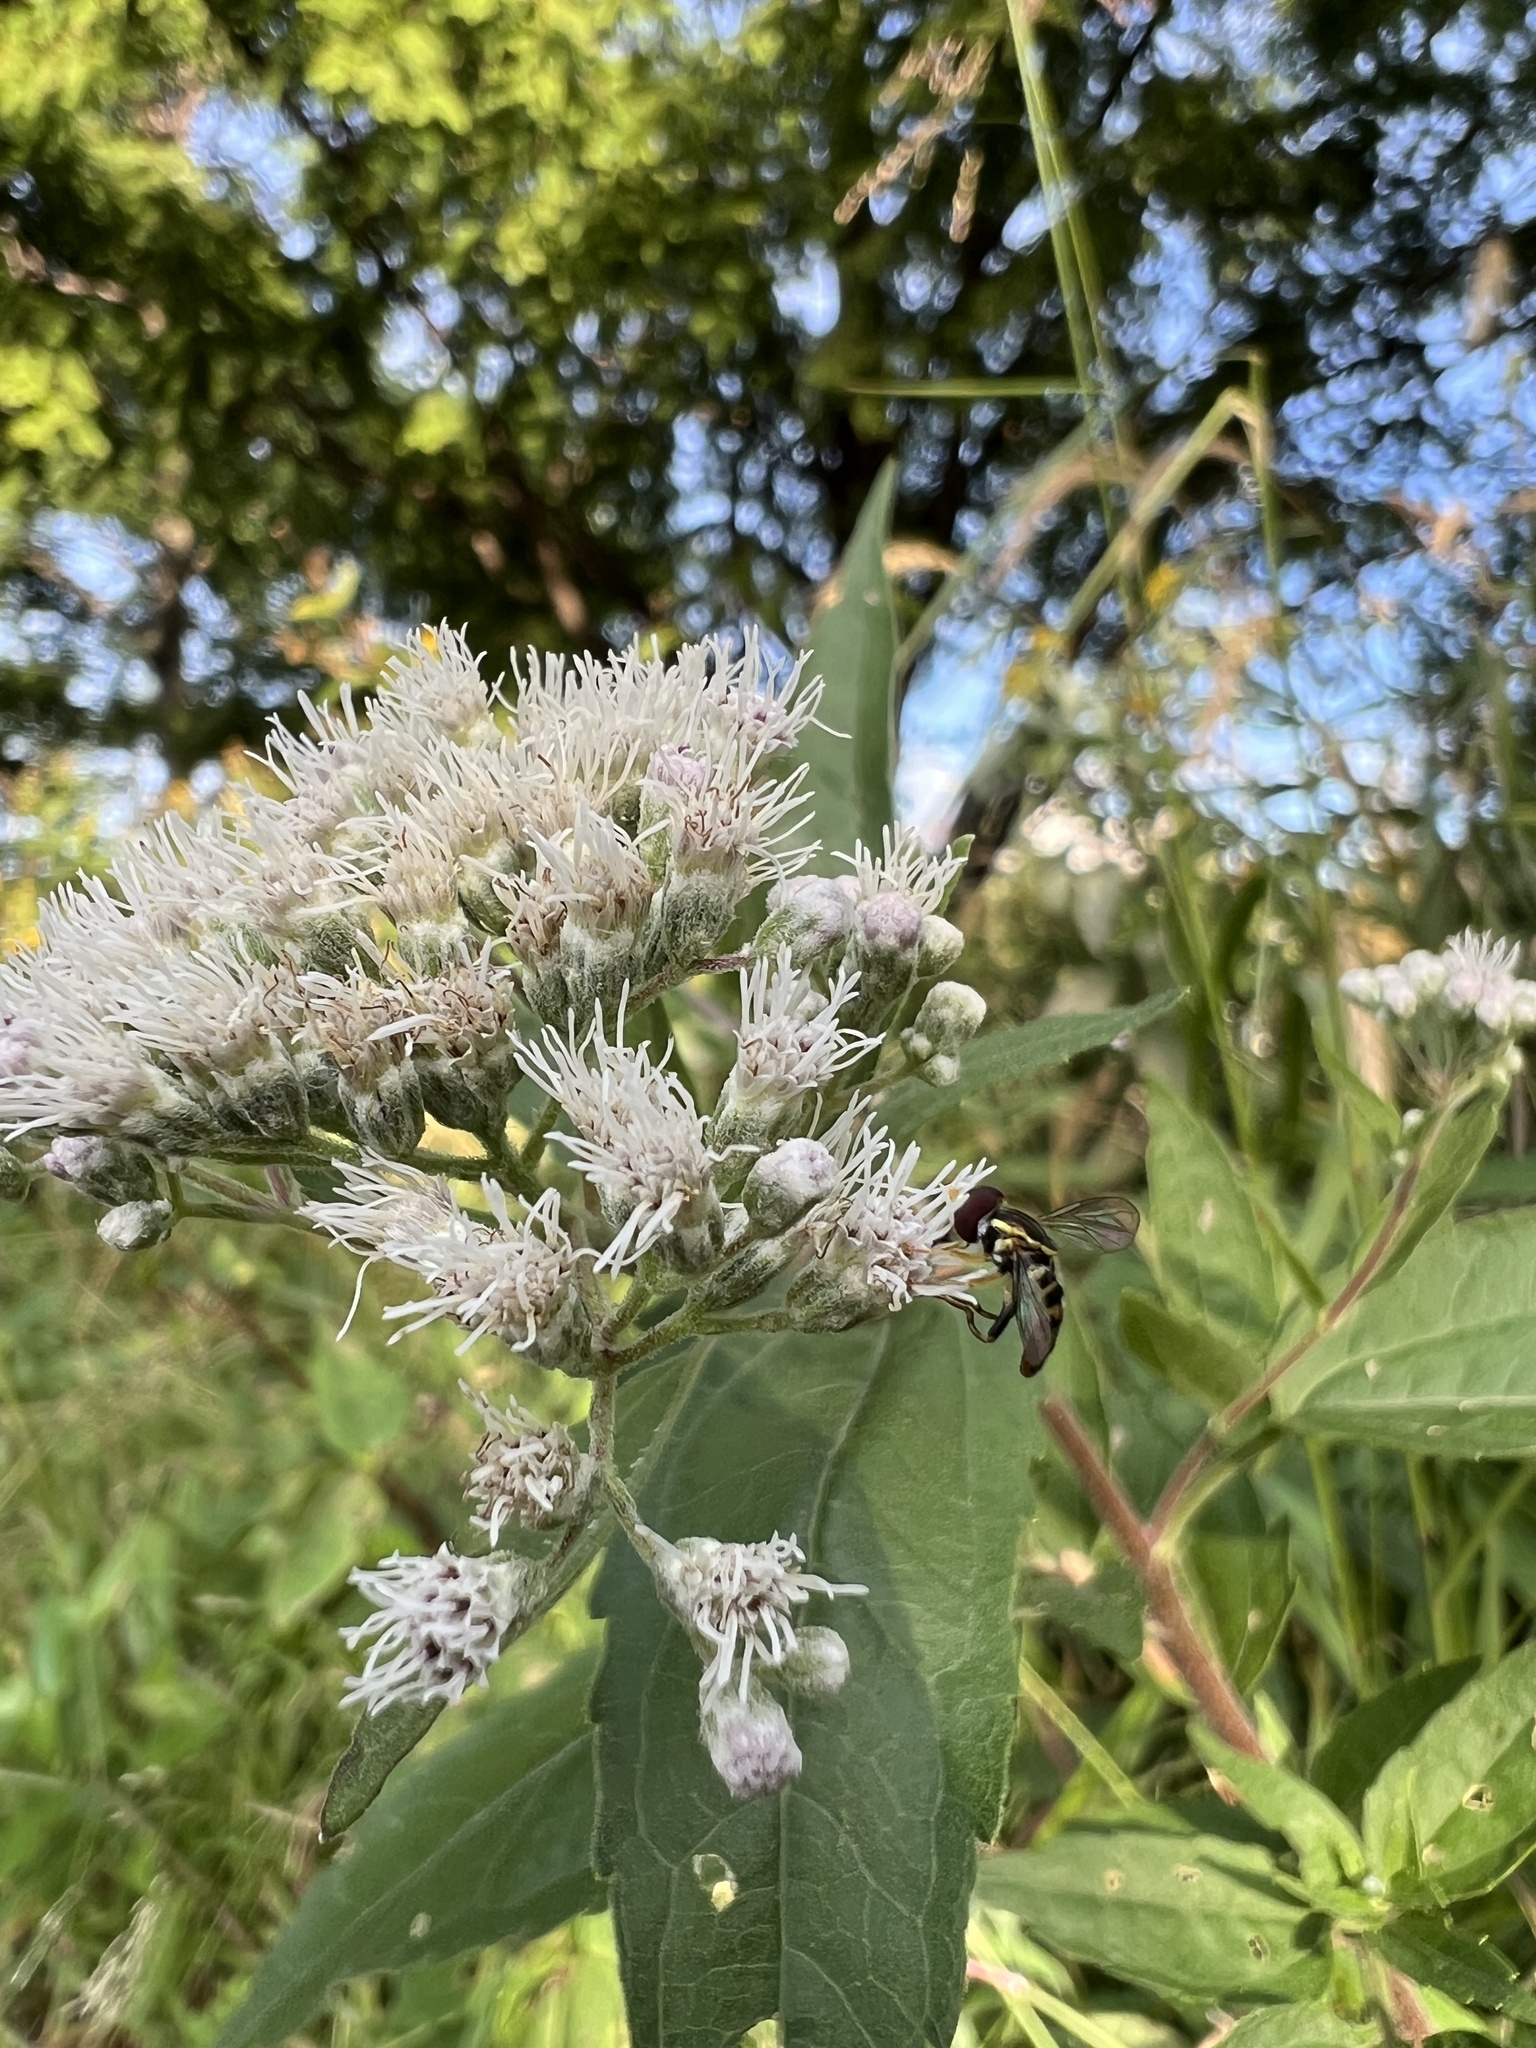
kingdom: Animalia
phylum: Arthropoda
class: Insecta
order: Diptera
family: Syrphidae
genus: Toxomerus
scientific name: Toxomerus geminatus
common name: Eastern calligrapher
